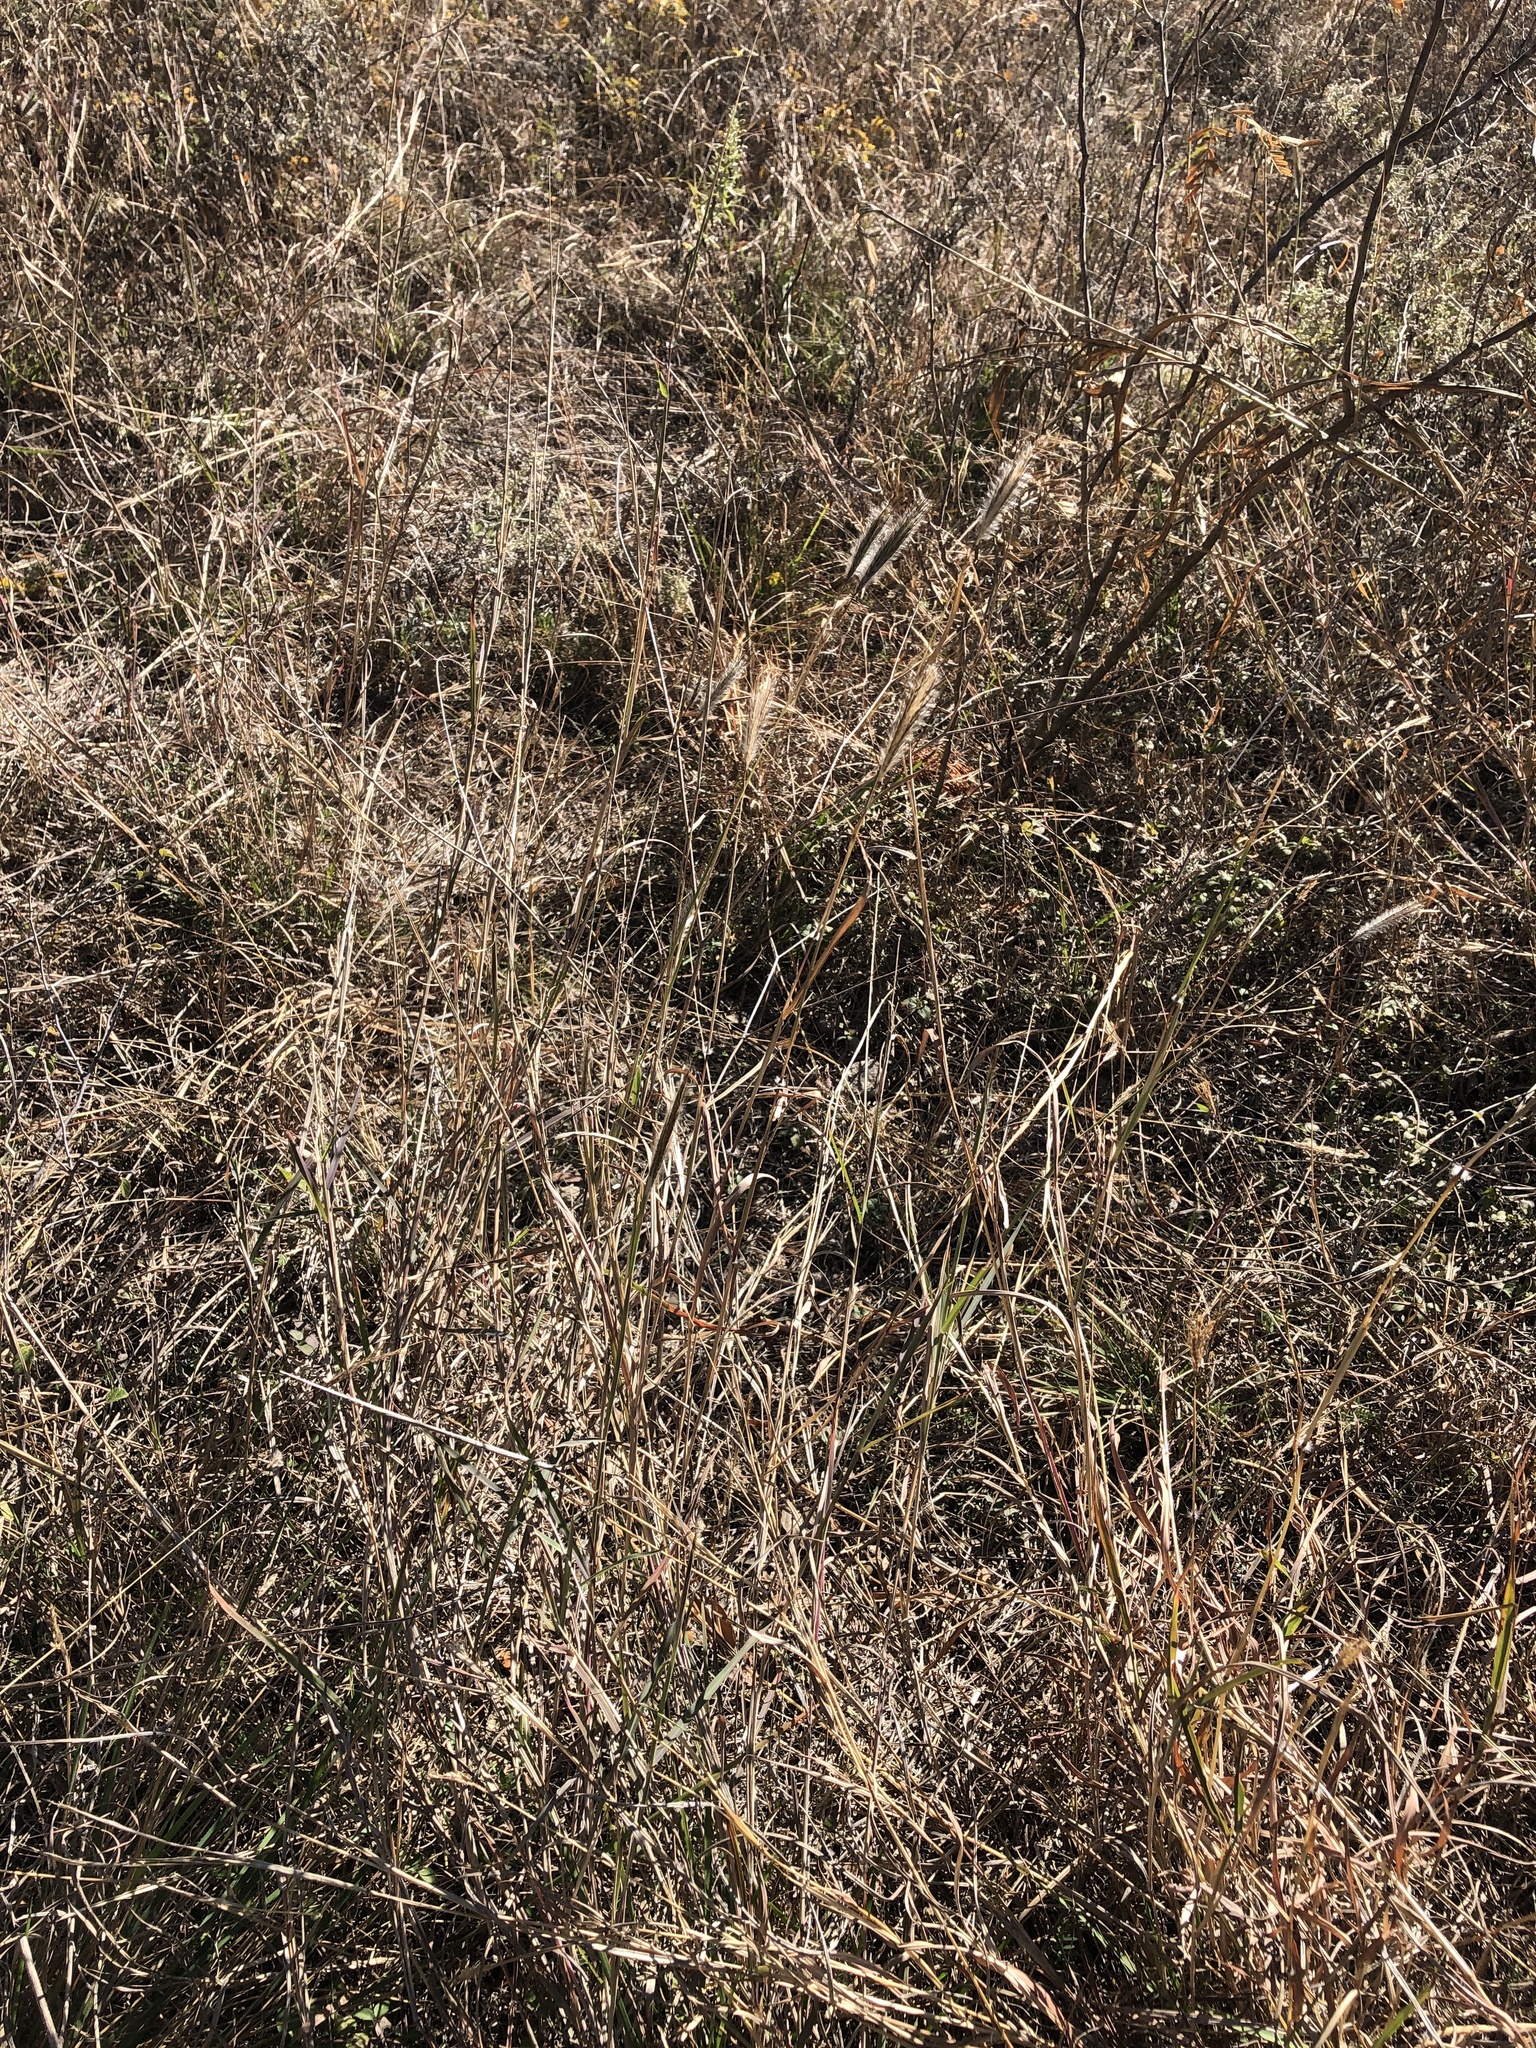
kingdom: Plantae
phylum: Tracheophyta
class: Liliopsida
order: Poales
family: Poaceae
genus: Dichanthium
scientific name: Dichanthium sericeum
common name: Silky bluestem
